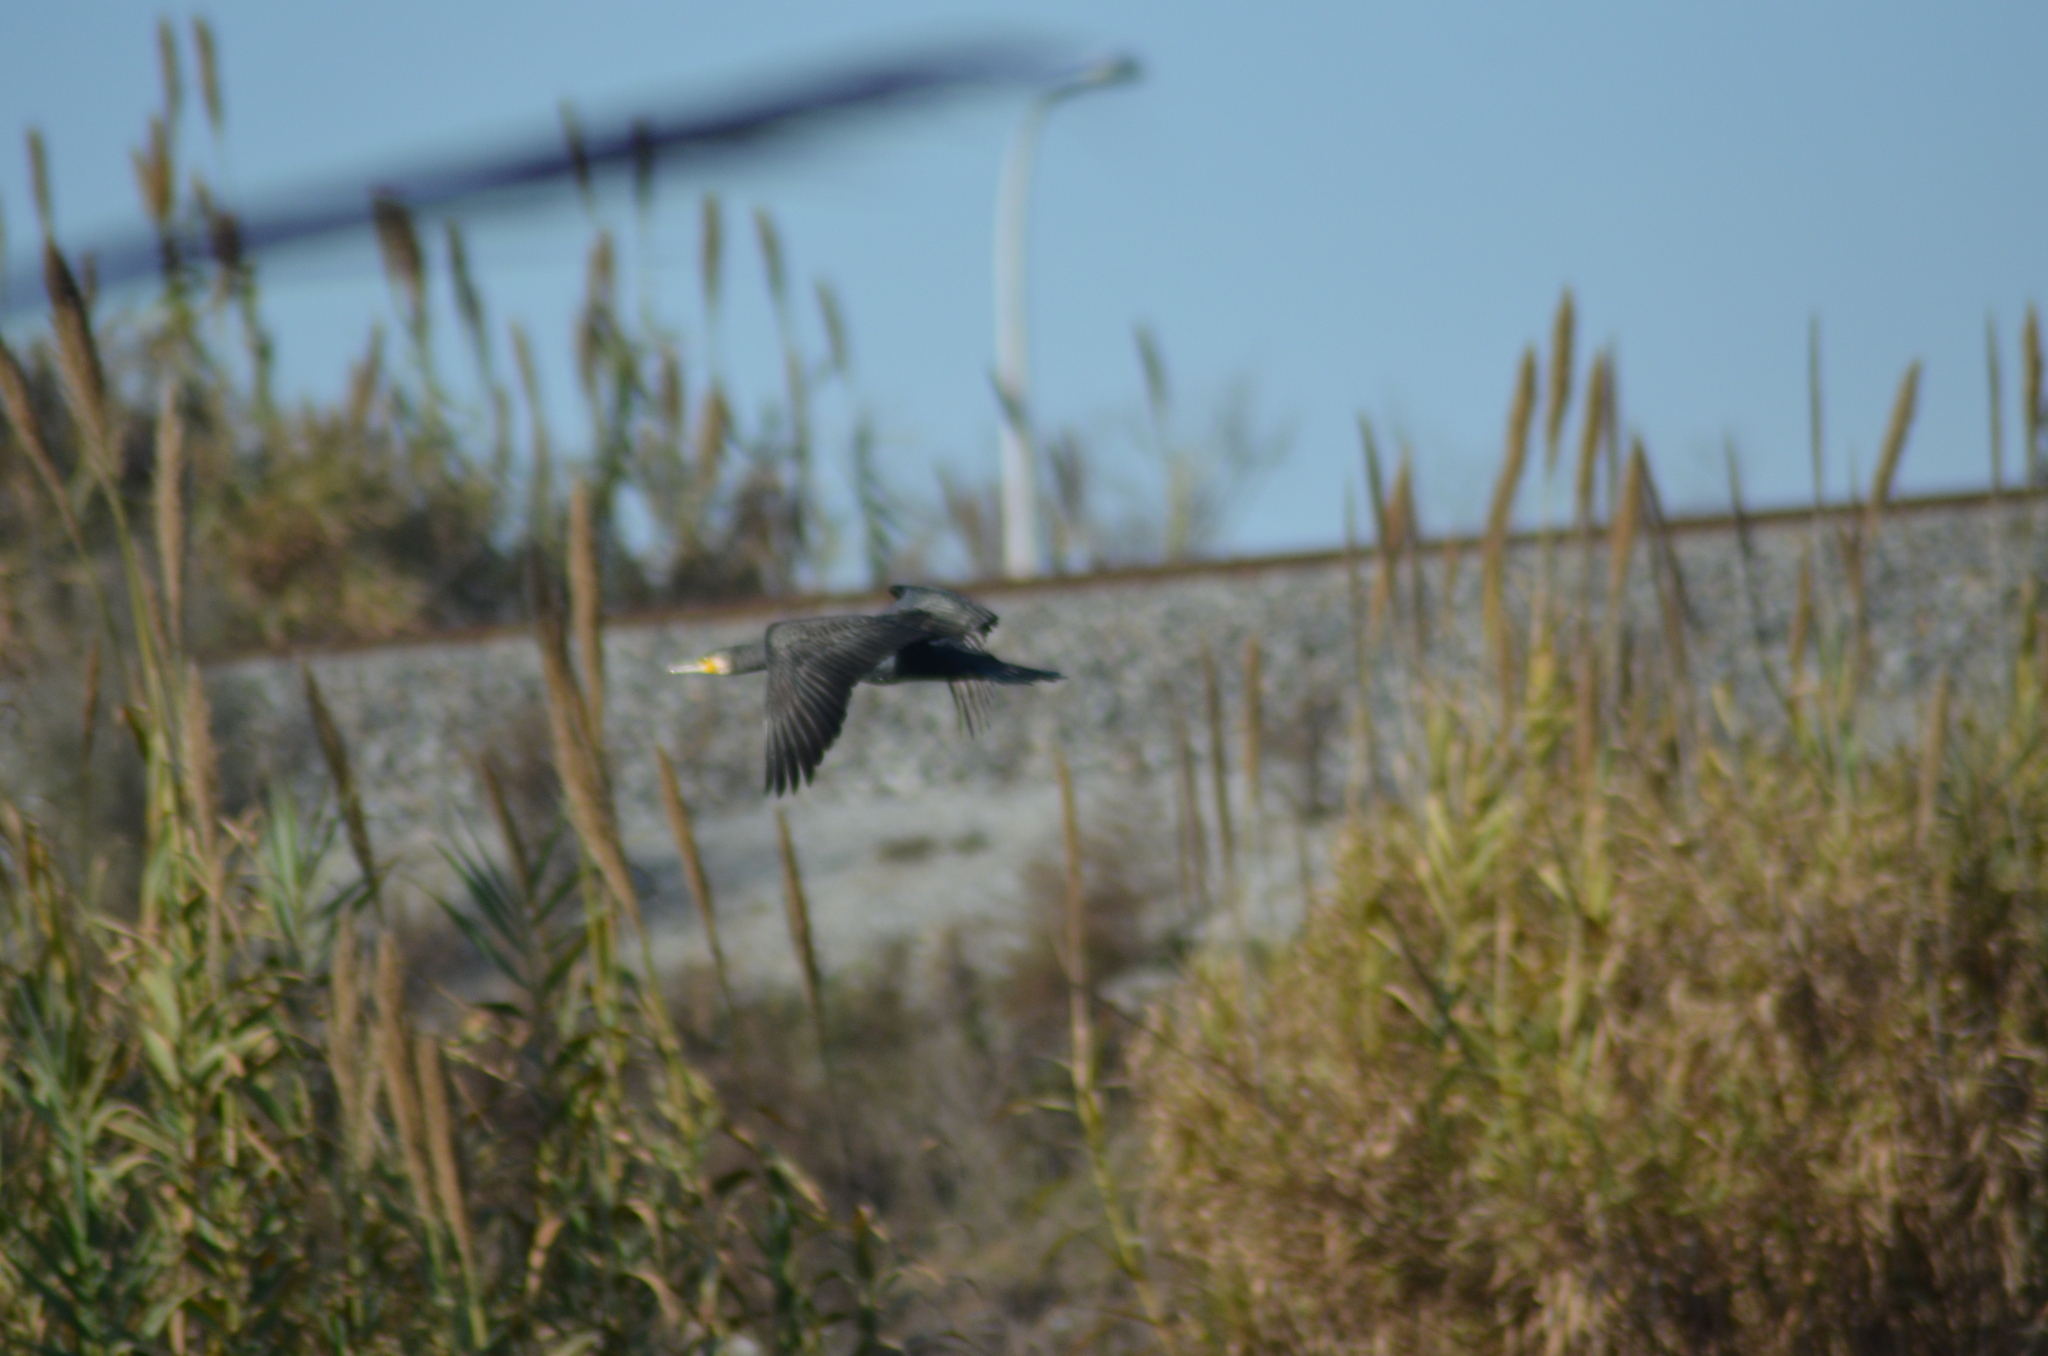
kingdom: Animalia
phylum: Chordata
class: Aves
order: Suliformes
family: Phalacrocoracidae
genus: Phalacrocorax
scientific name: Phalacrocorax carbo
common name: Great cormorant
